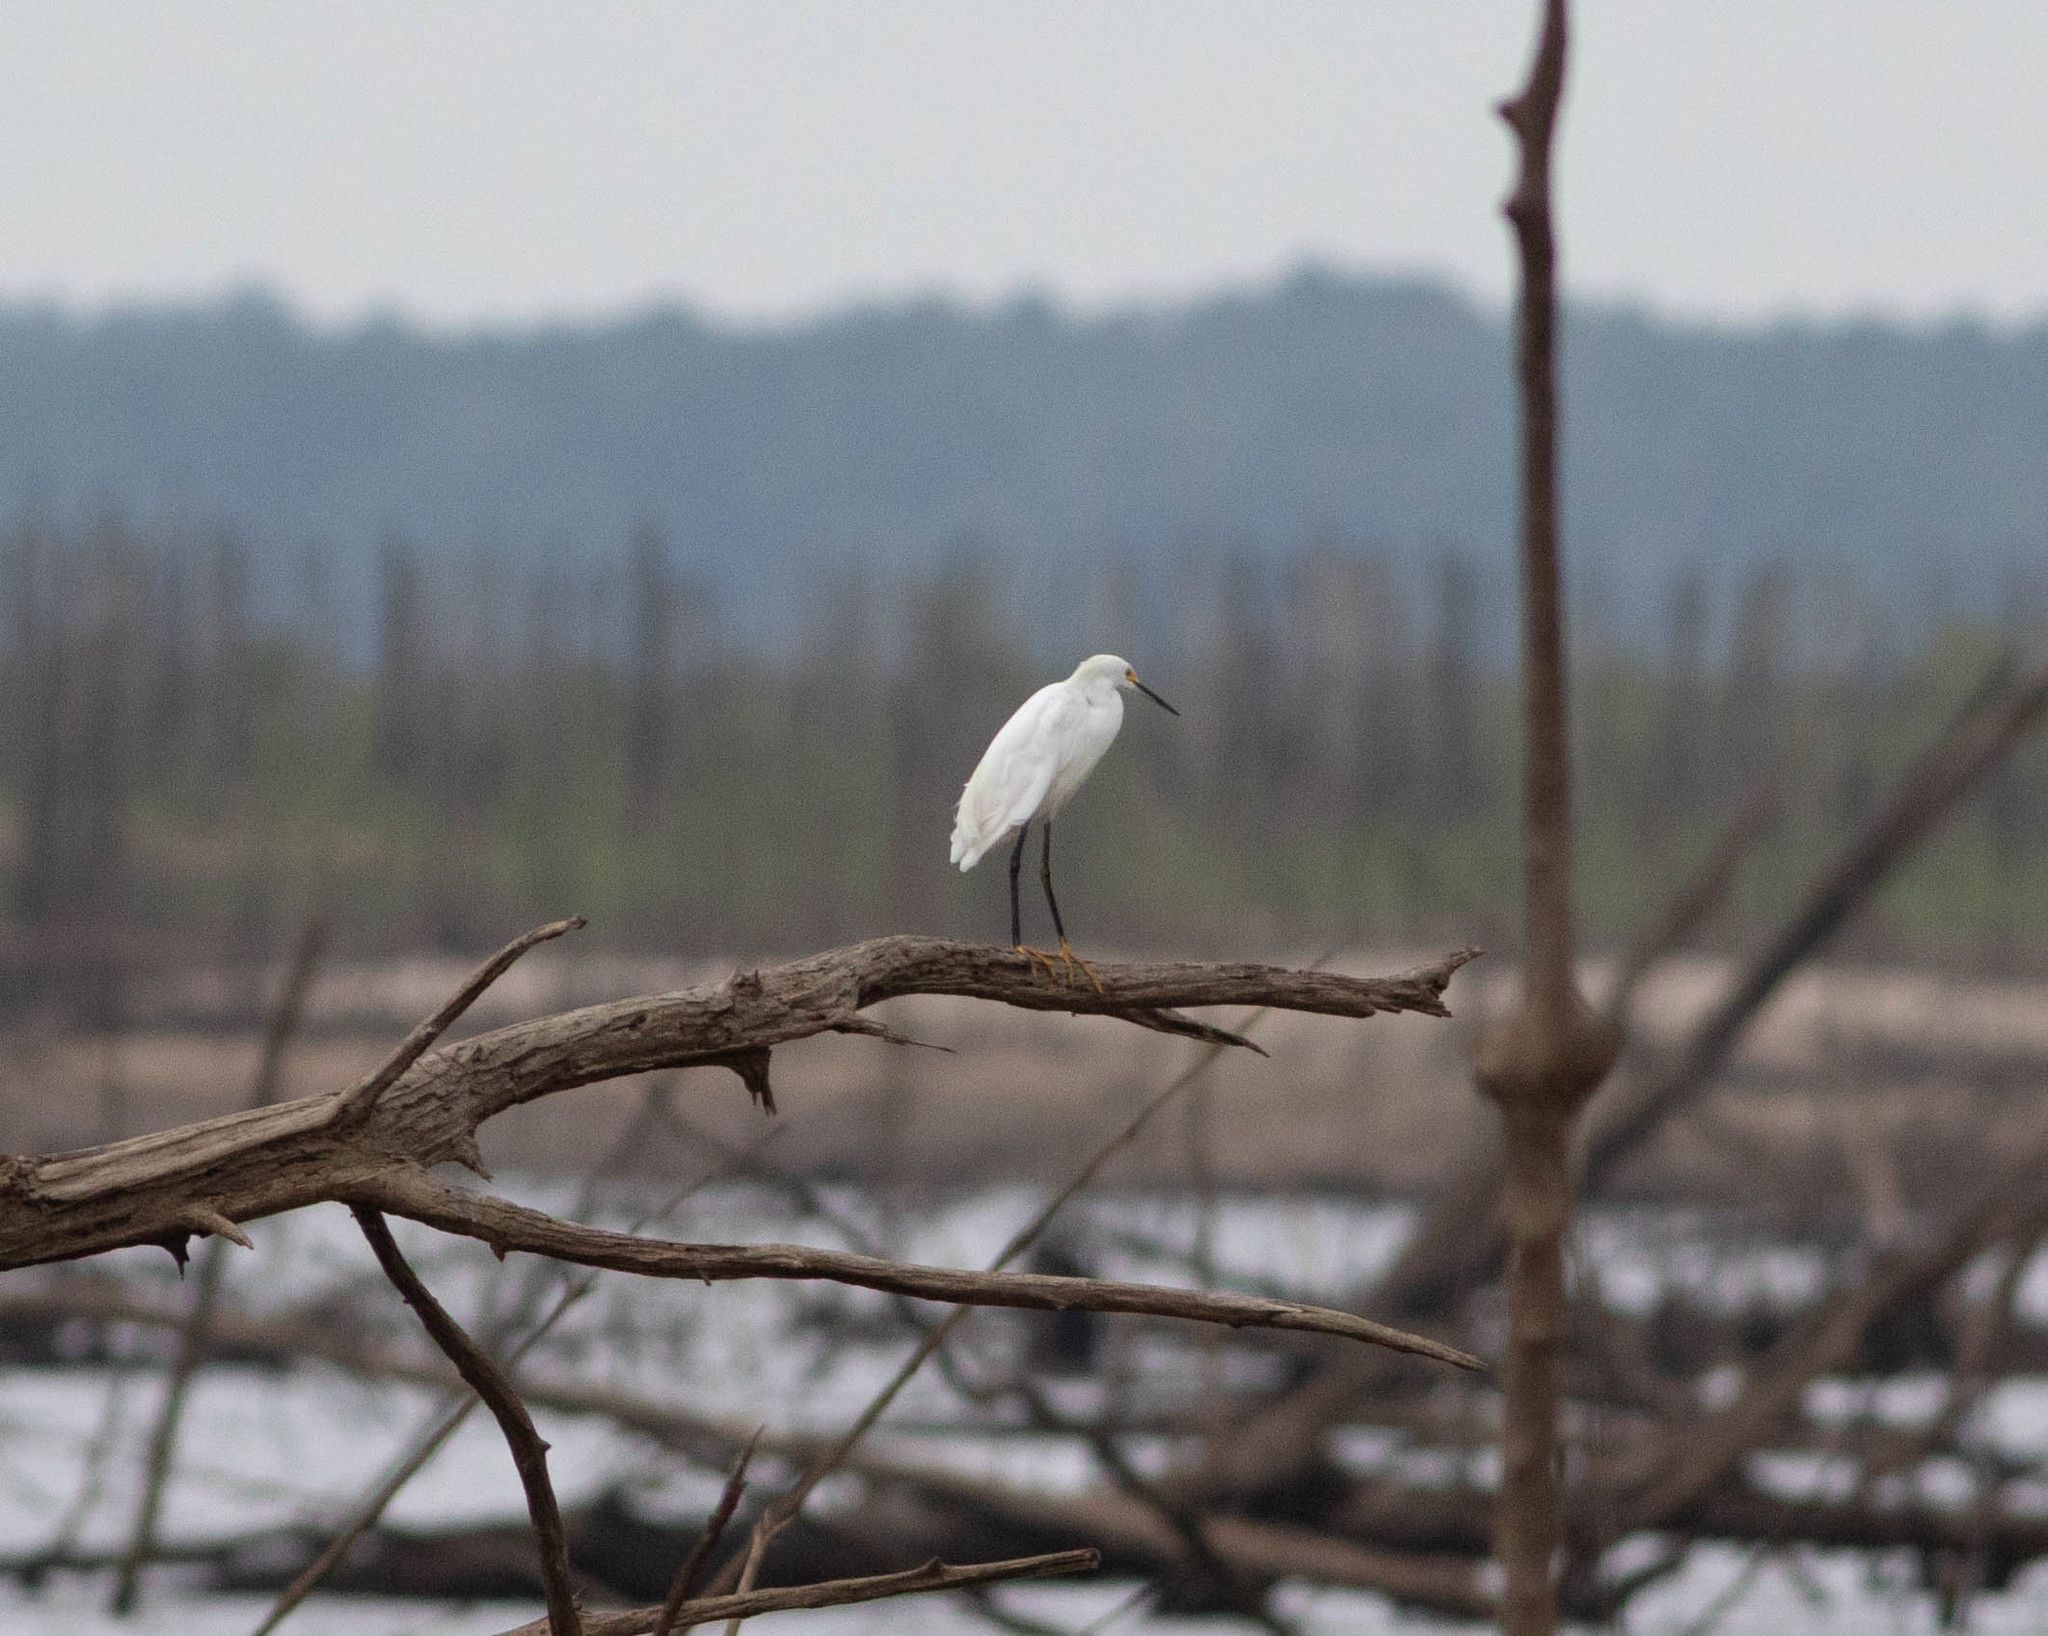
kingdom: Animalia
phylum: Chordata
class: Aves
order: Pelecaniformes
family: Ardeidae
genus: Egretta
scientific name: Egretta thula
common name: Snowy egret
